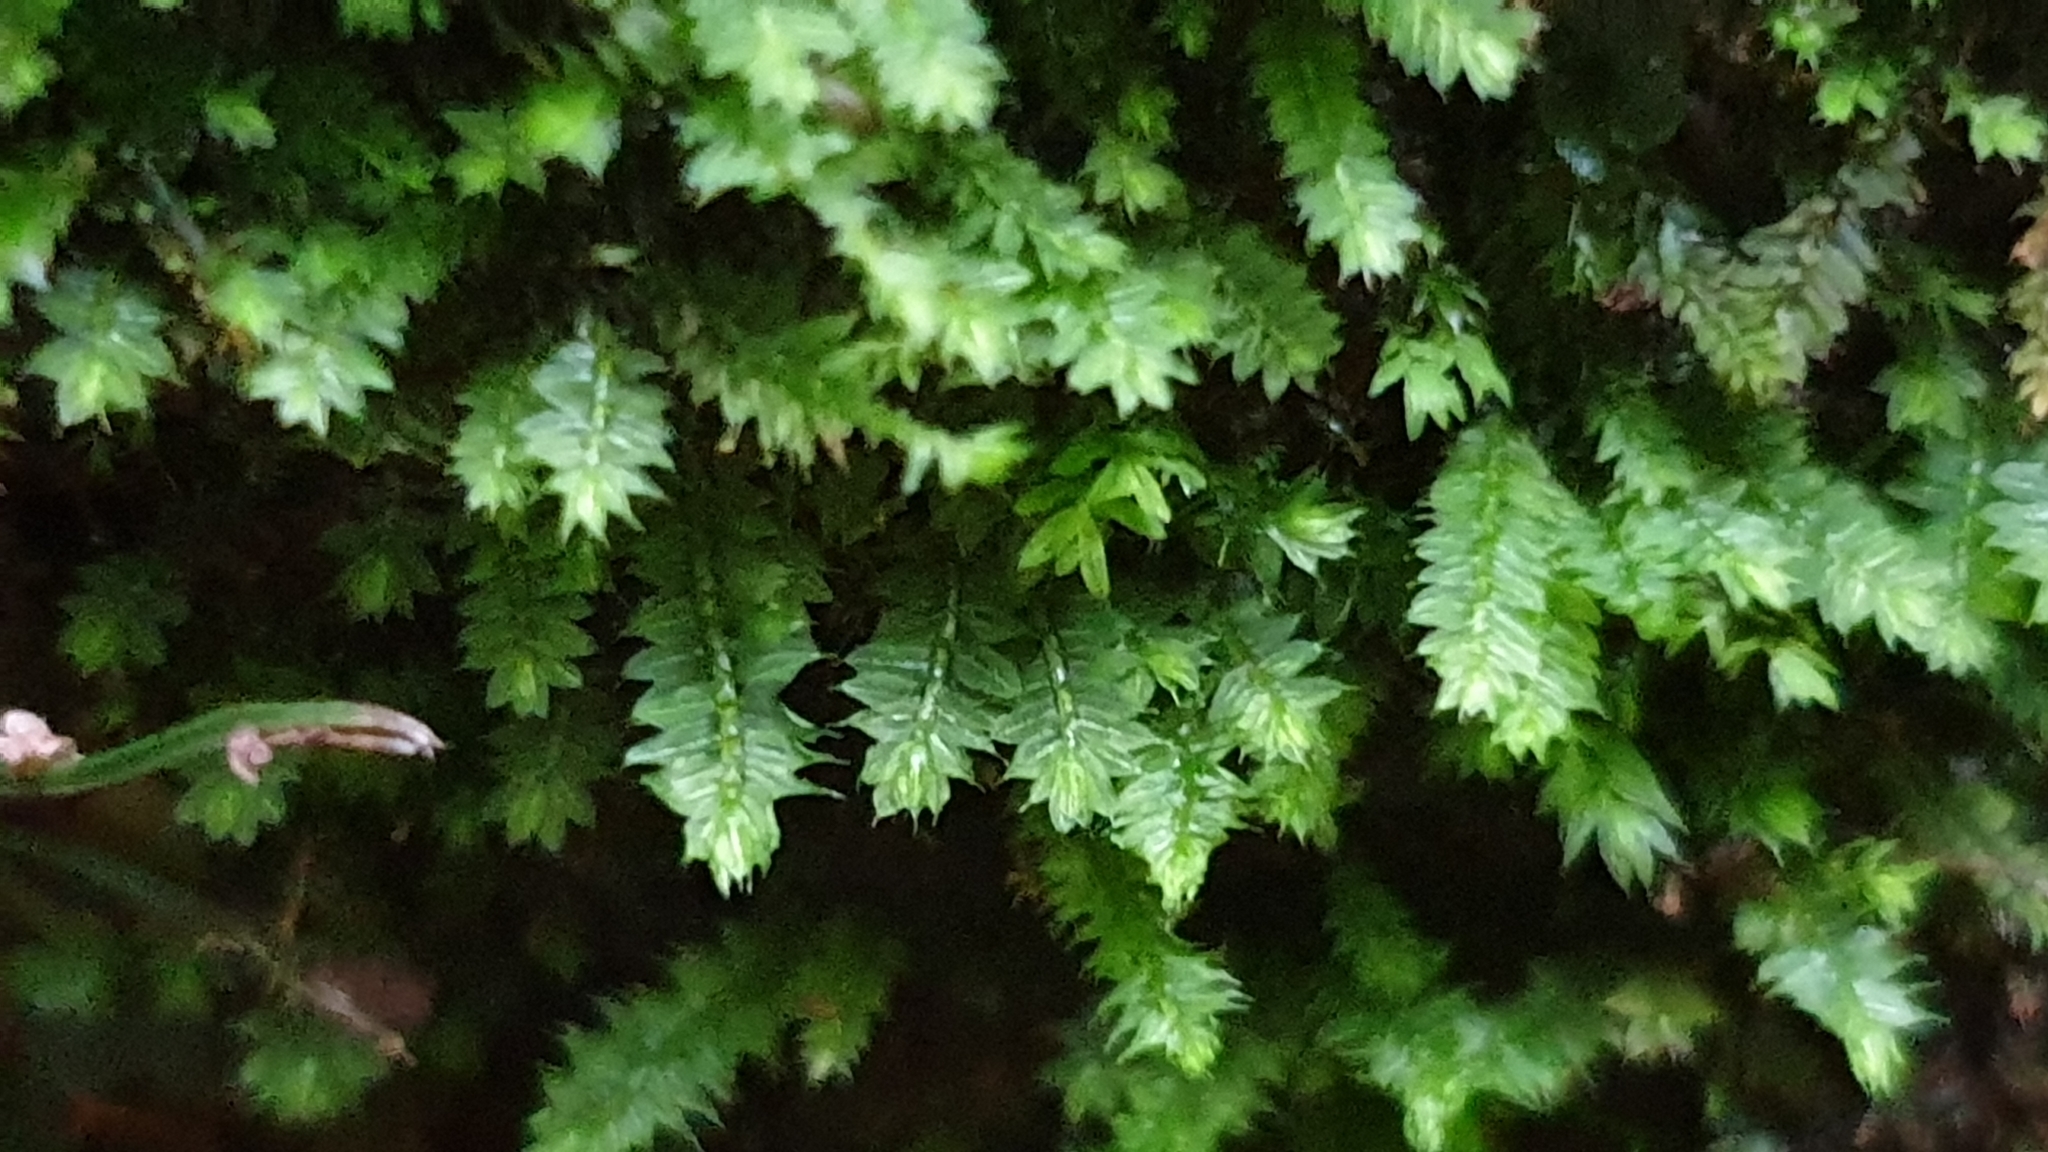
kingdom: Plantae
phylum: Bryophyta
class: Bryopsida
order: Hypnodendrales
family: Racopilaceae
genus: Racopilum
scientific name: Racopilum cuspidigerum
